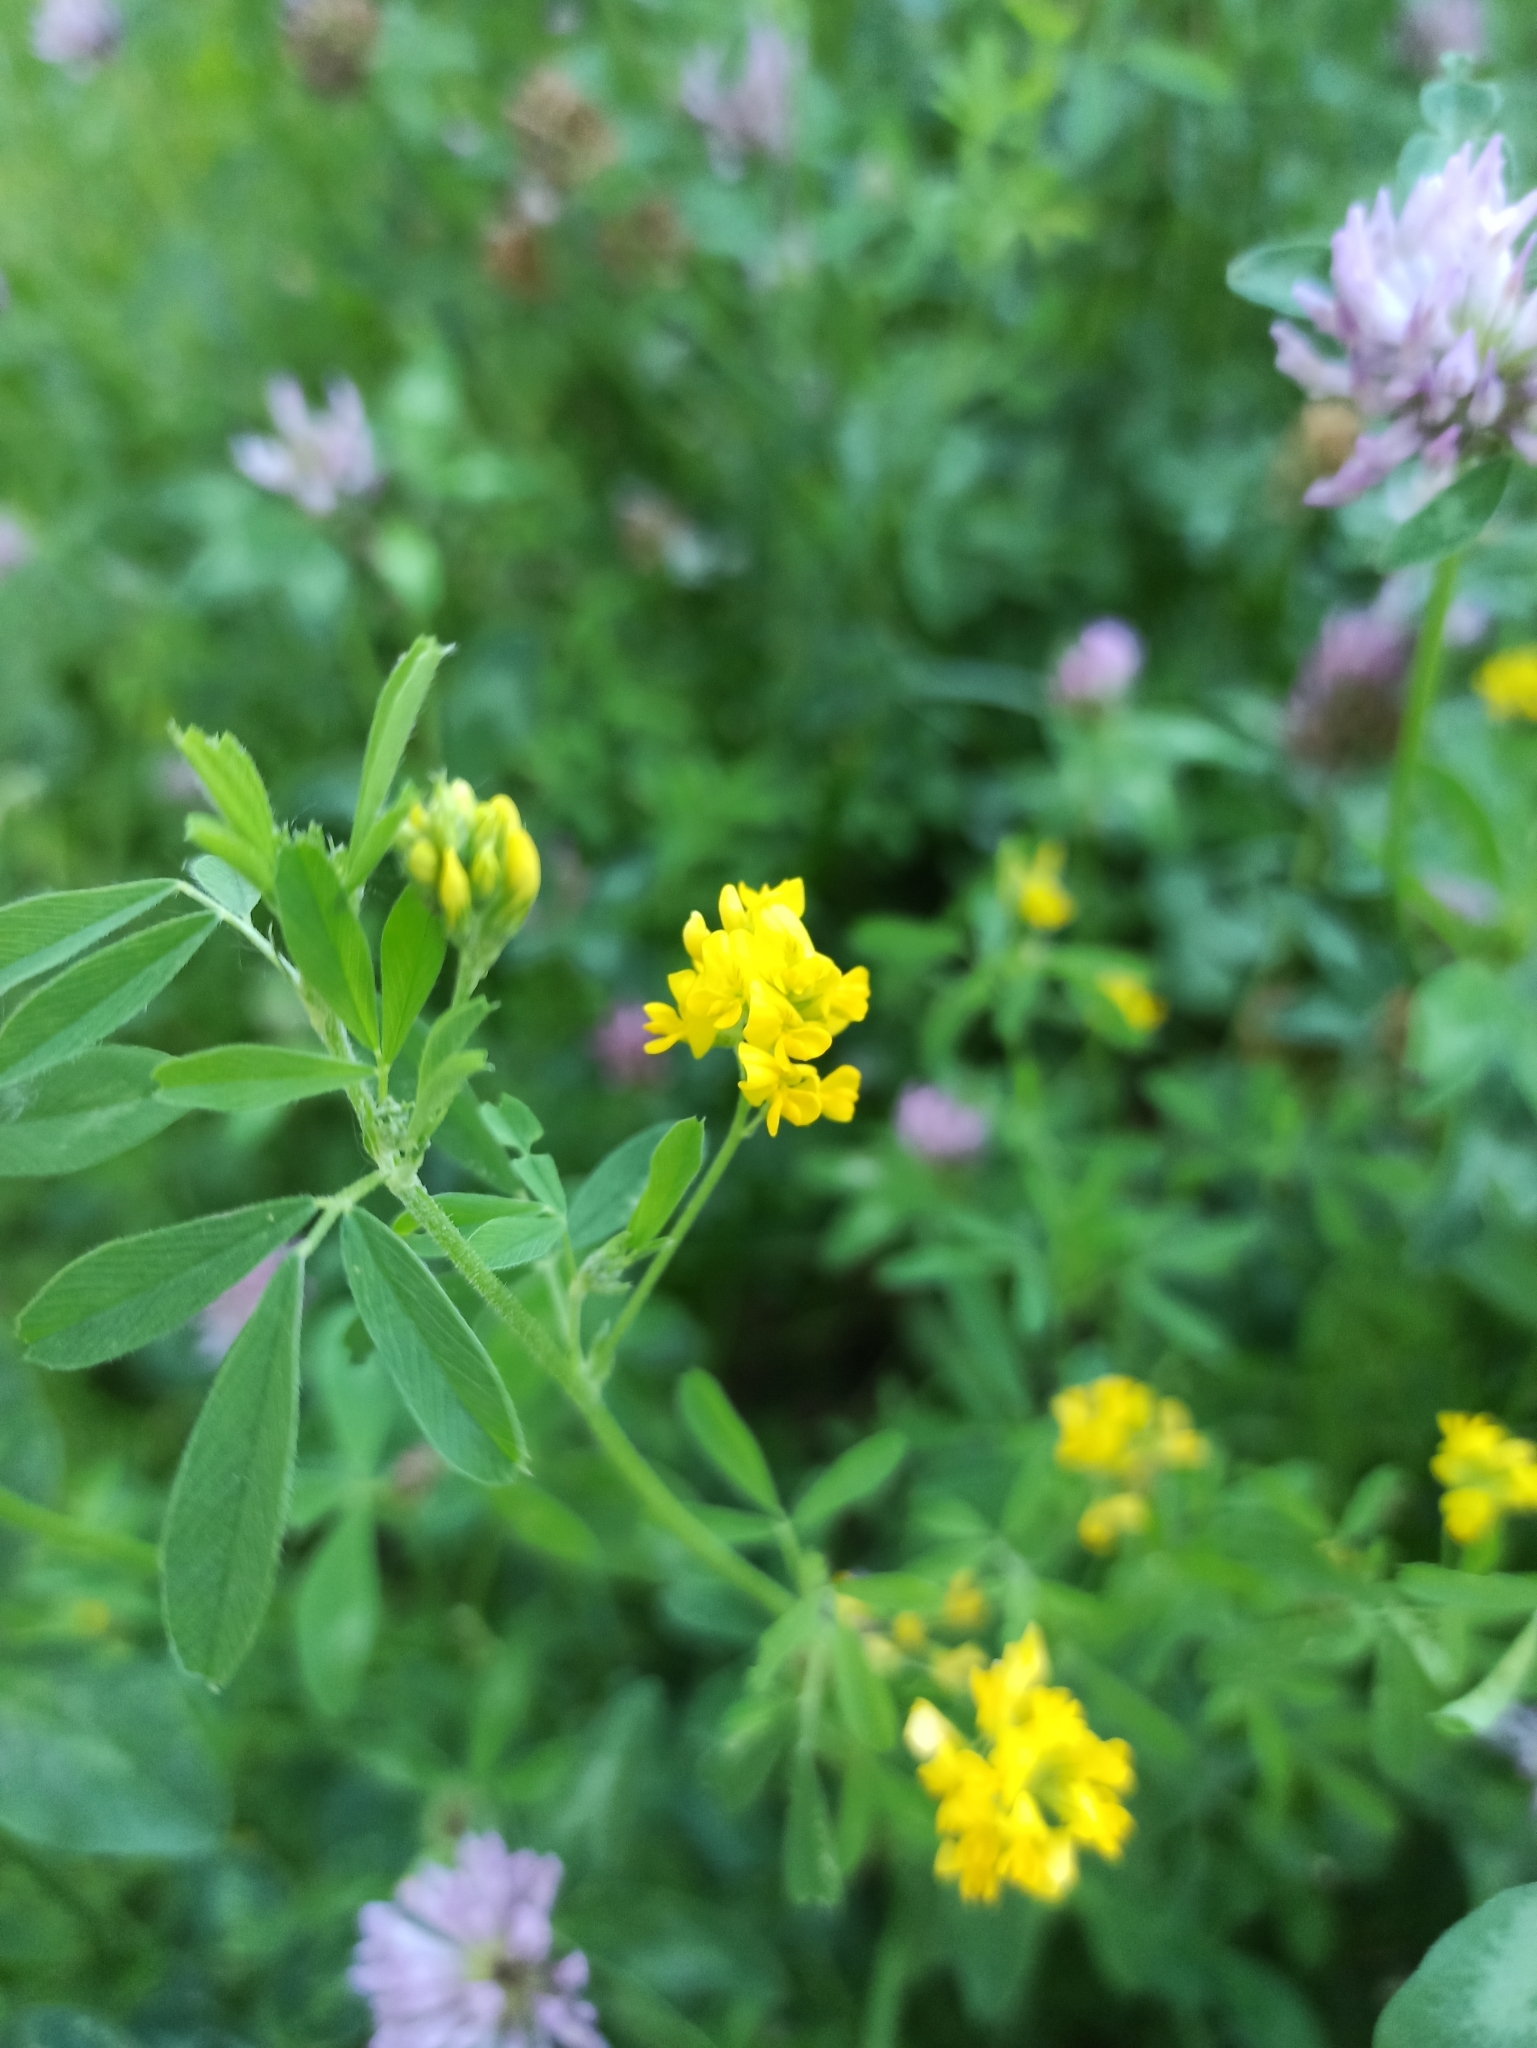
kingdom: Plantae
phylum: Tracheophyta
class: Magnoliopsida
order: Fabales
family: Fabaceae
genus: Medicago
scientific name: Medicago falcata
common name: Sickle medick
